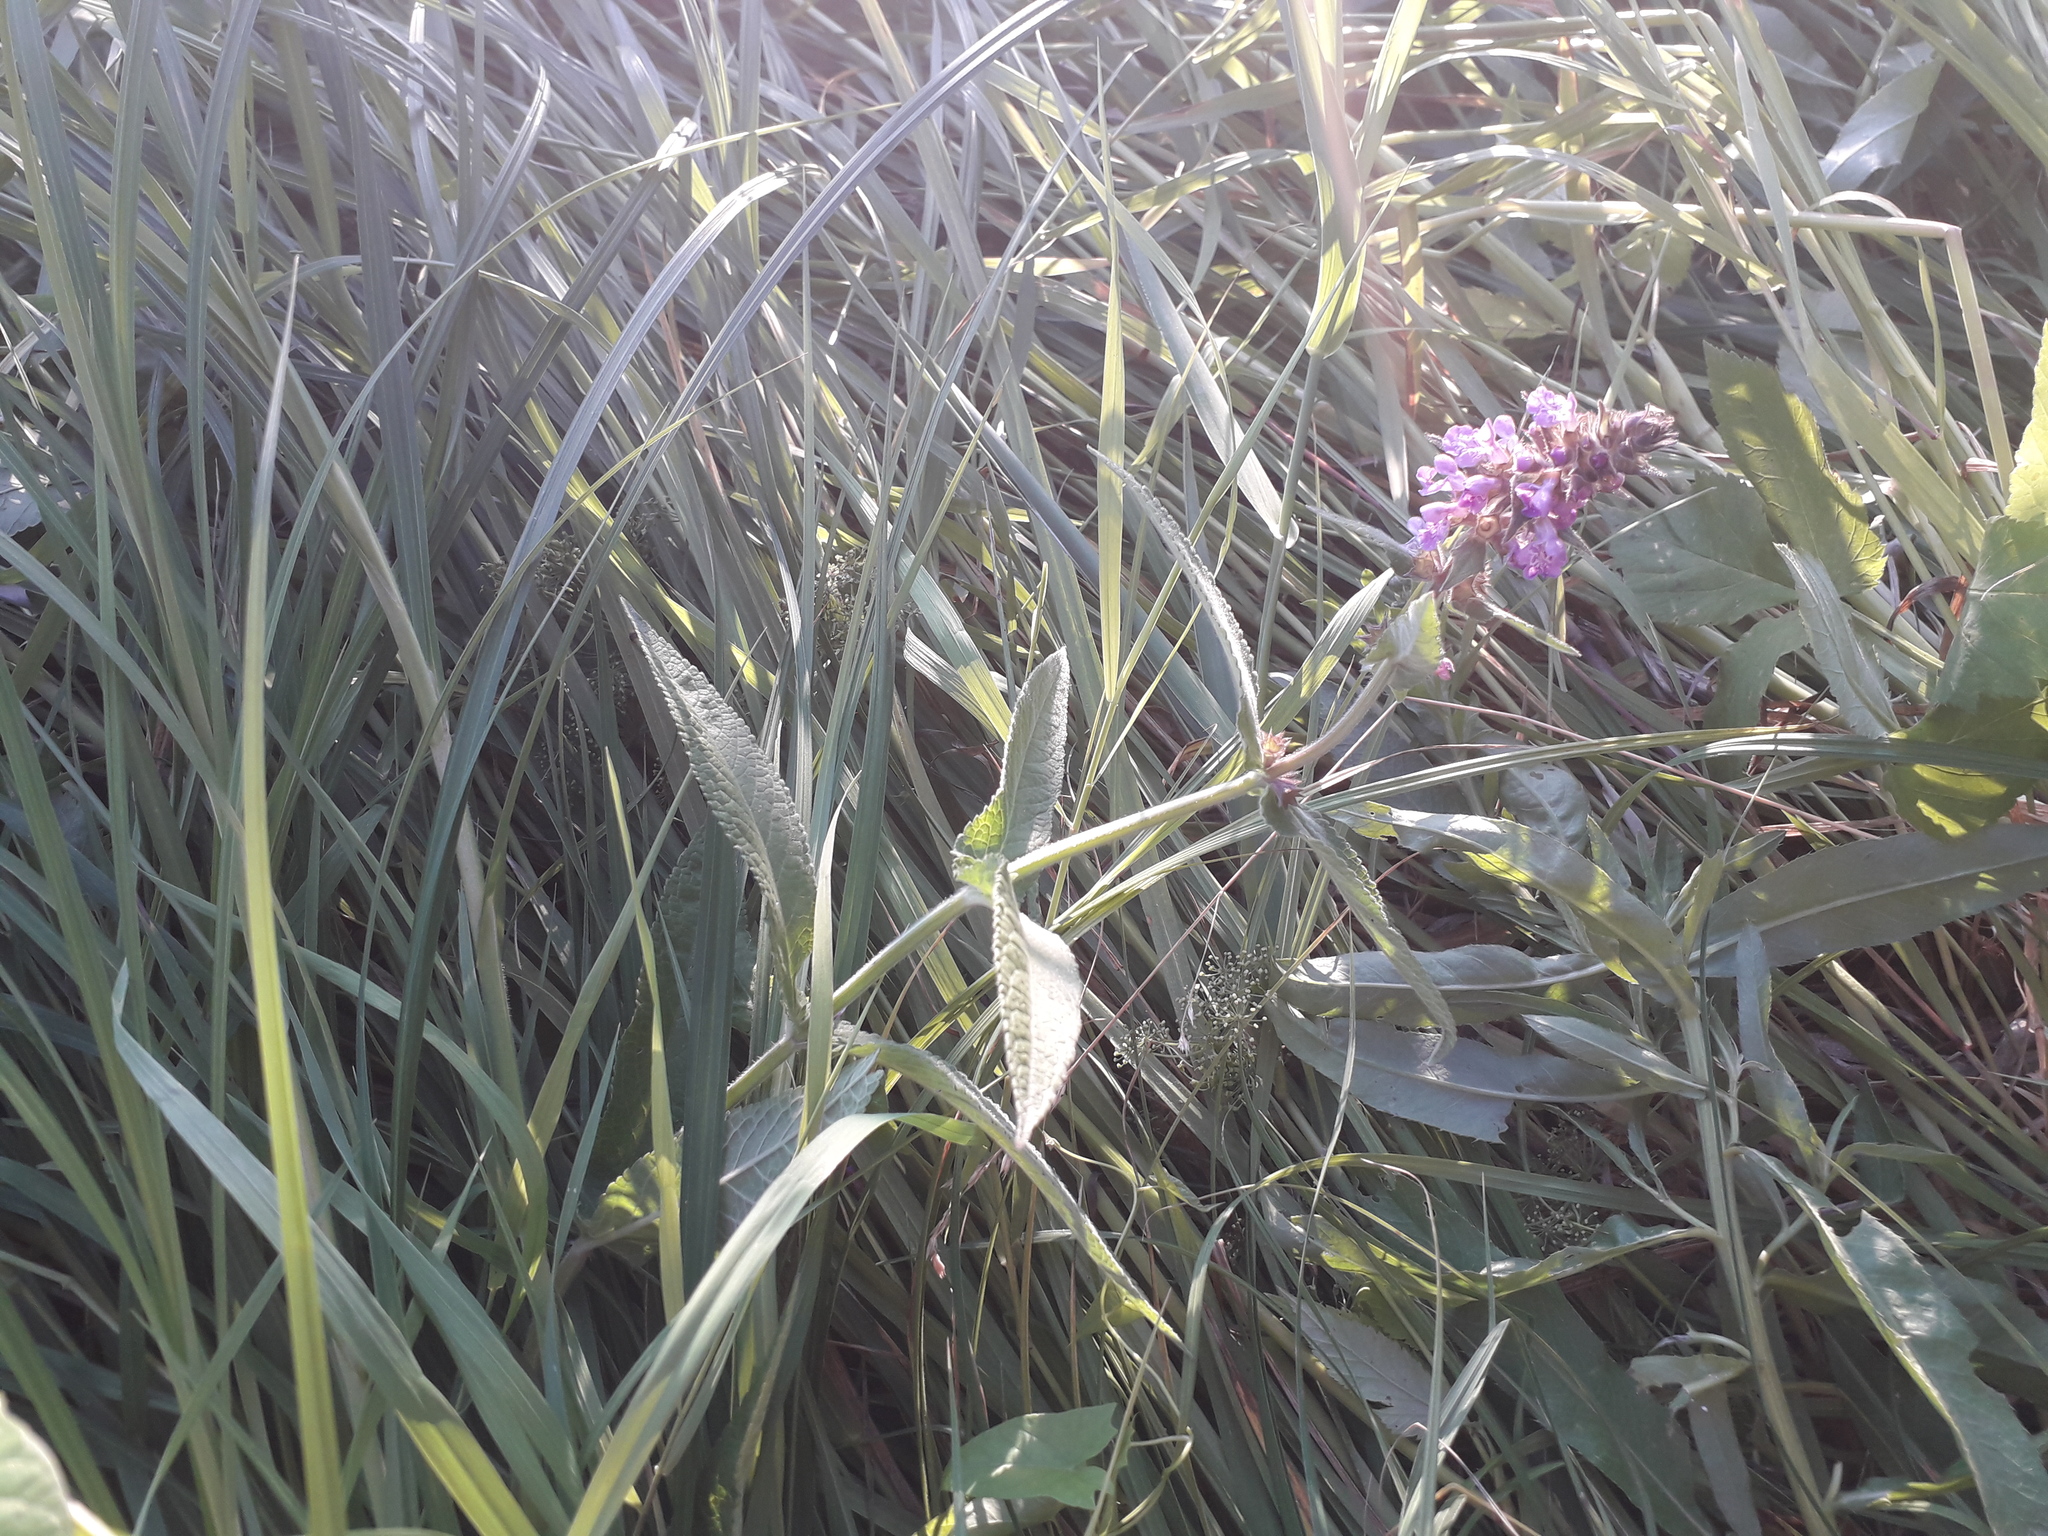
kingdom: Plantae
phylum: Tracheophyta
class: Magnoliopsida
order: Lamiales
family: Lamiaceae
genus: Stachys
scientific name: Stachys palustris
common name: Marsh woundwort
